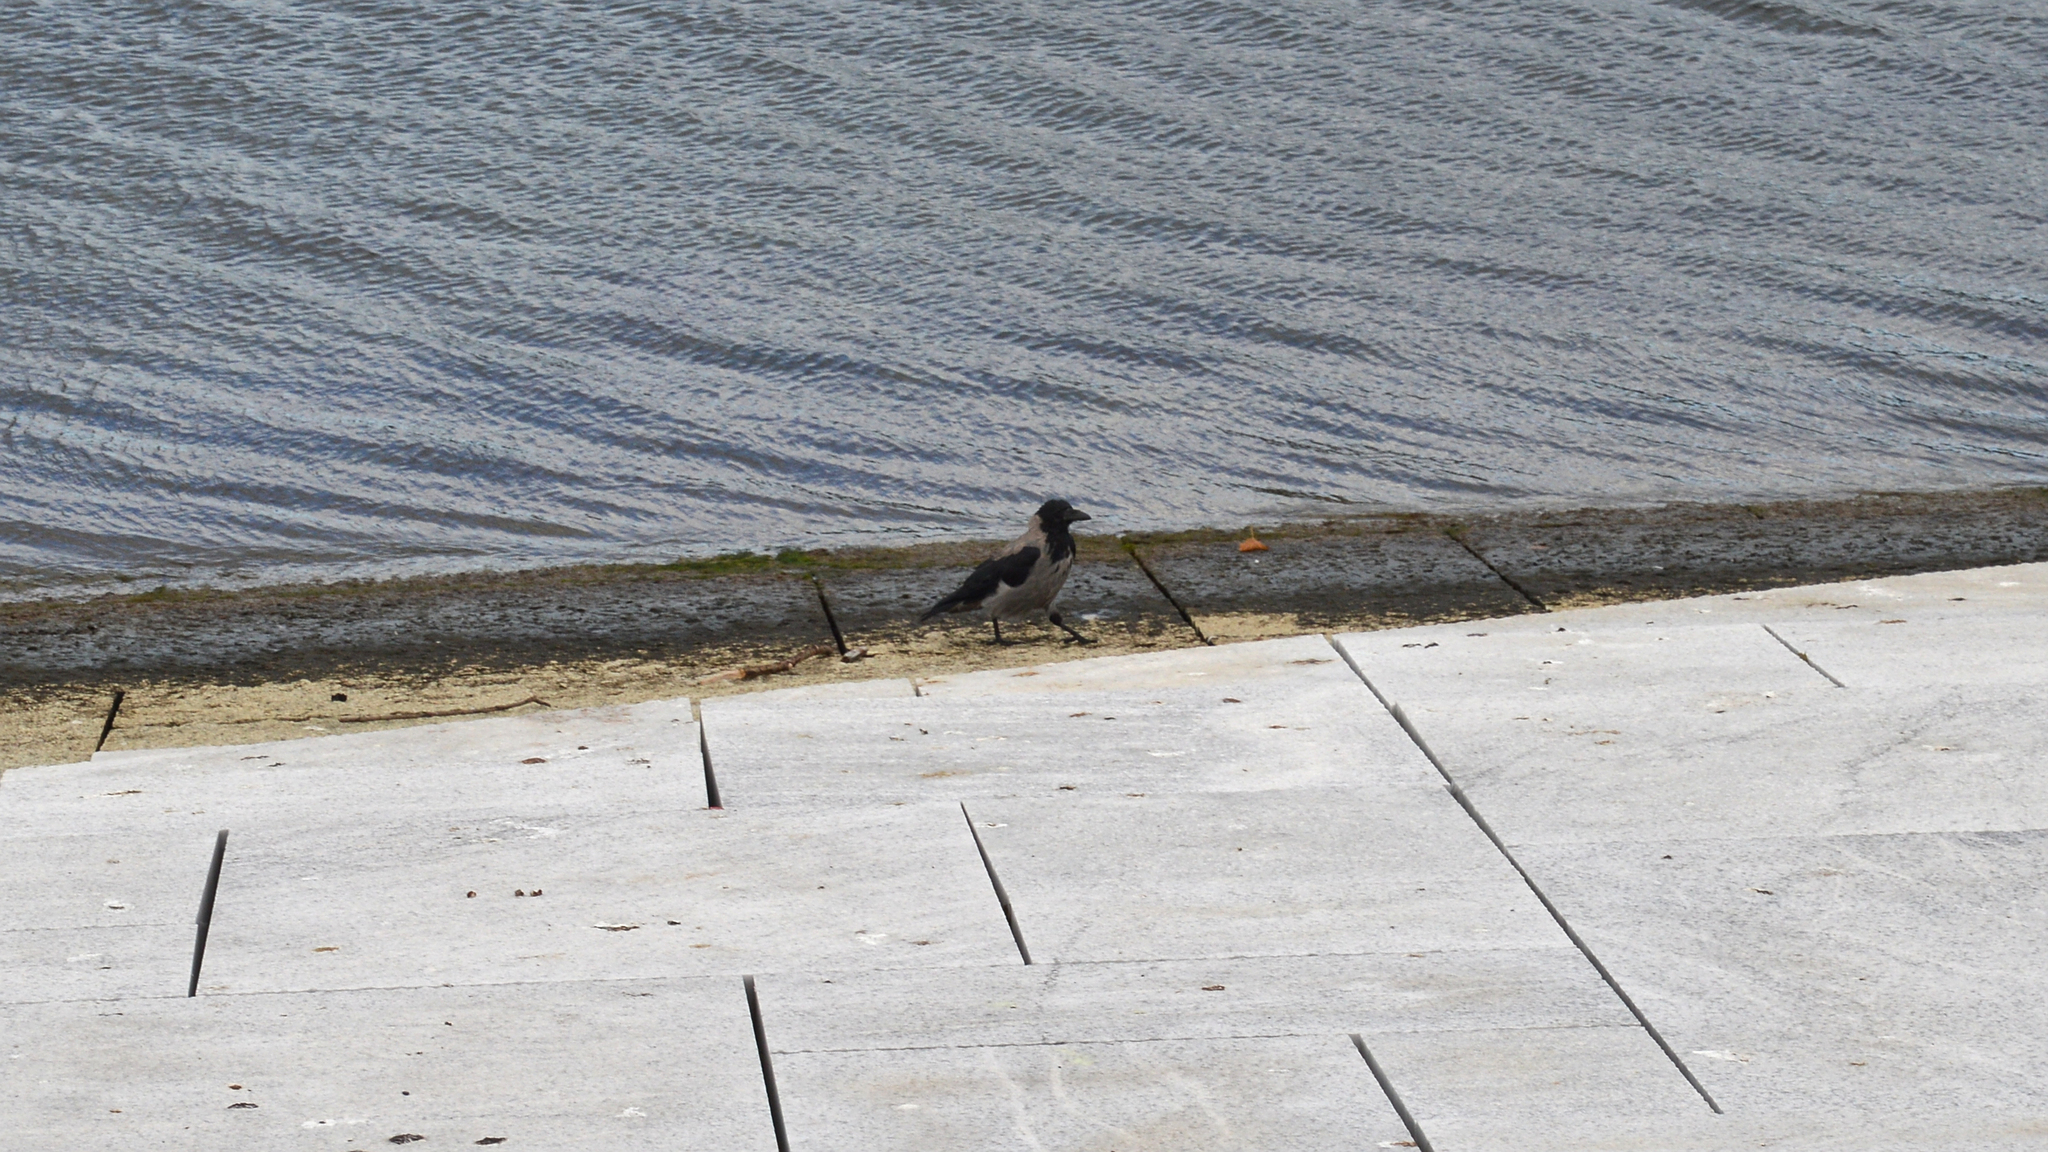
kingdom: Animalia
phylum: Chordata
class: Aves
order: Passeriformes
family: Corvidae
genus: Corvus
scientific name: Corvus cornix
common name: Hooded crow
